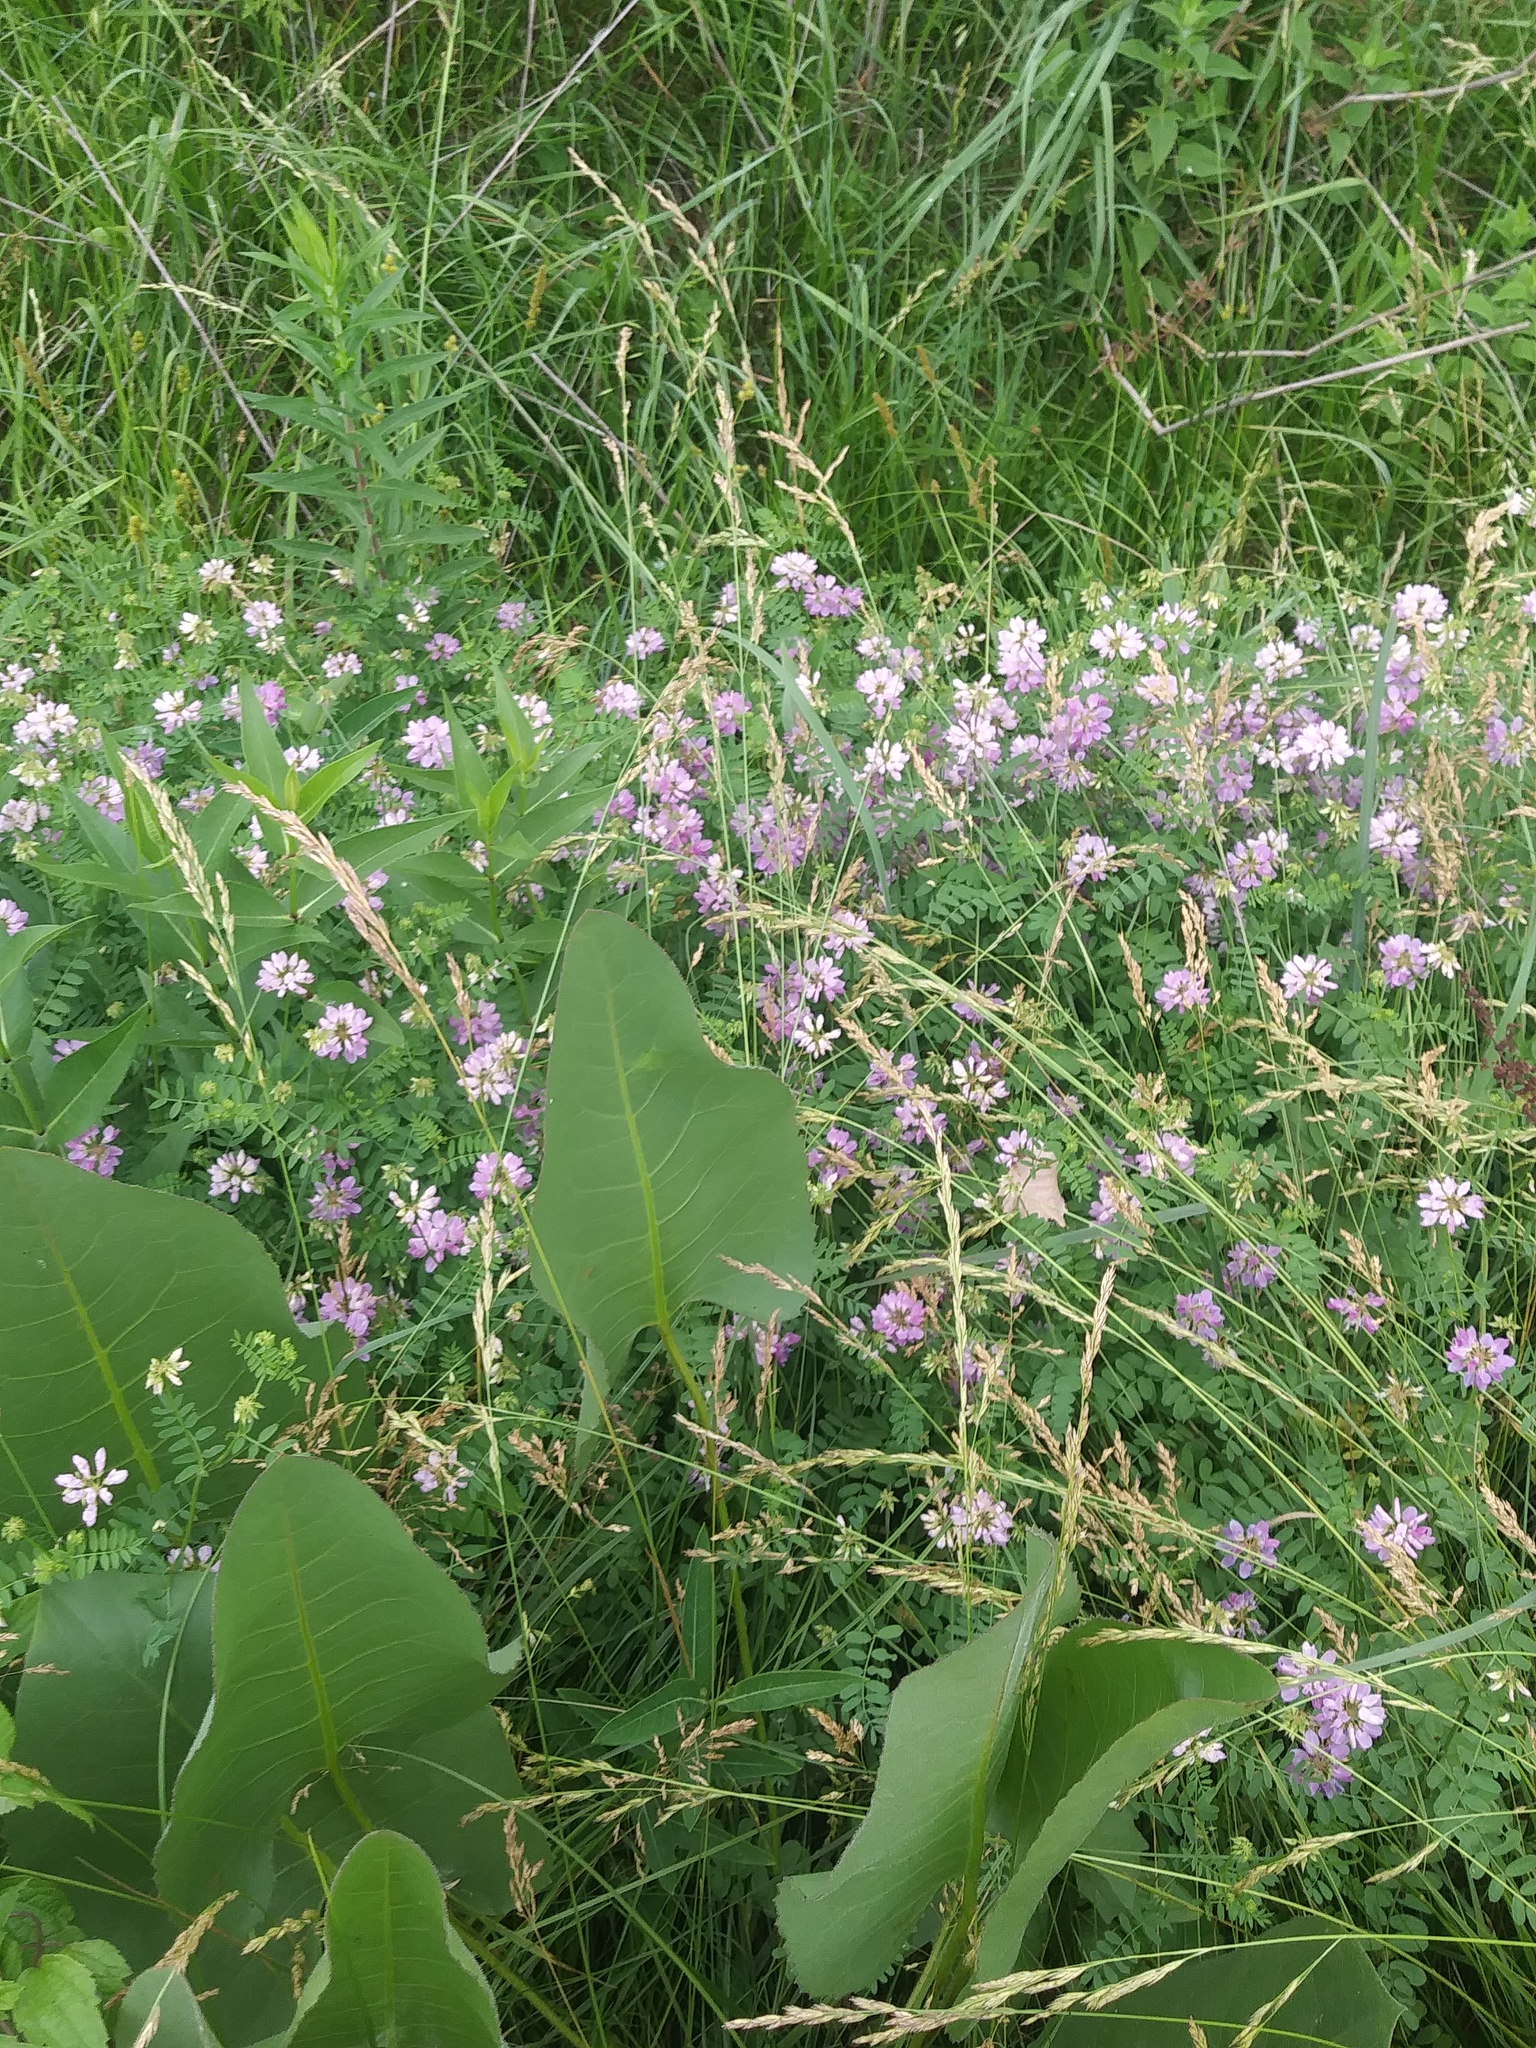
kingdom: Plantae
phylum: Tracheophyta
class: Magnoliopsida
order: Fabales
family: Fabaceae
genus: Coronilla
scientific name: Coronilla varia
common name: Crownvetch
